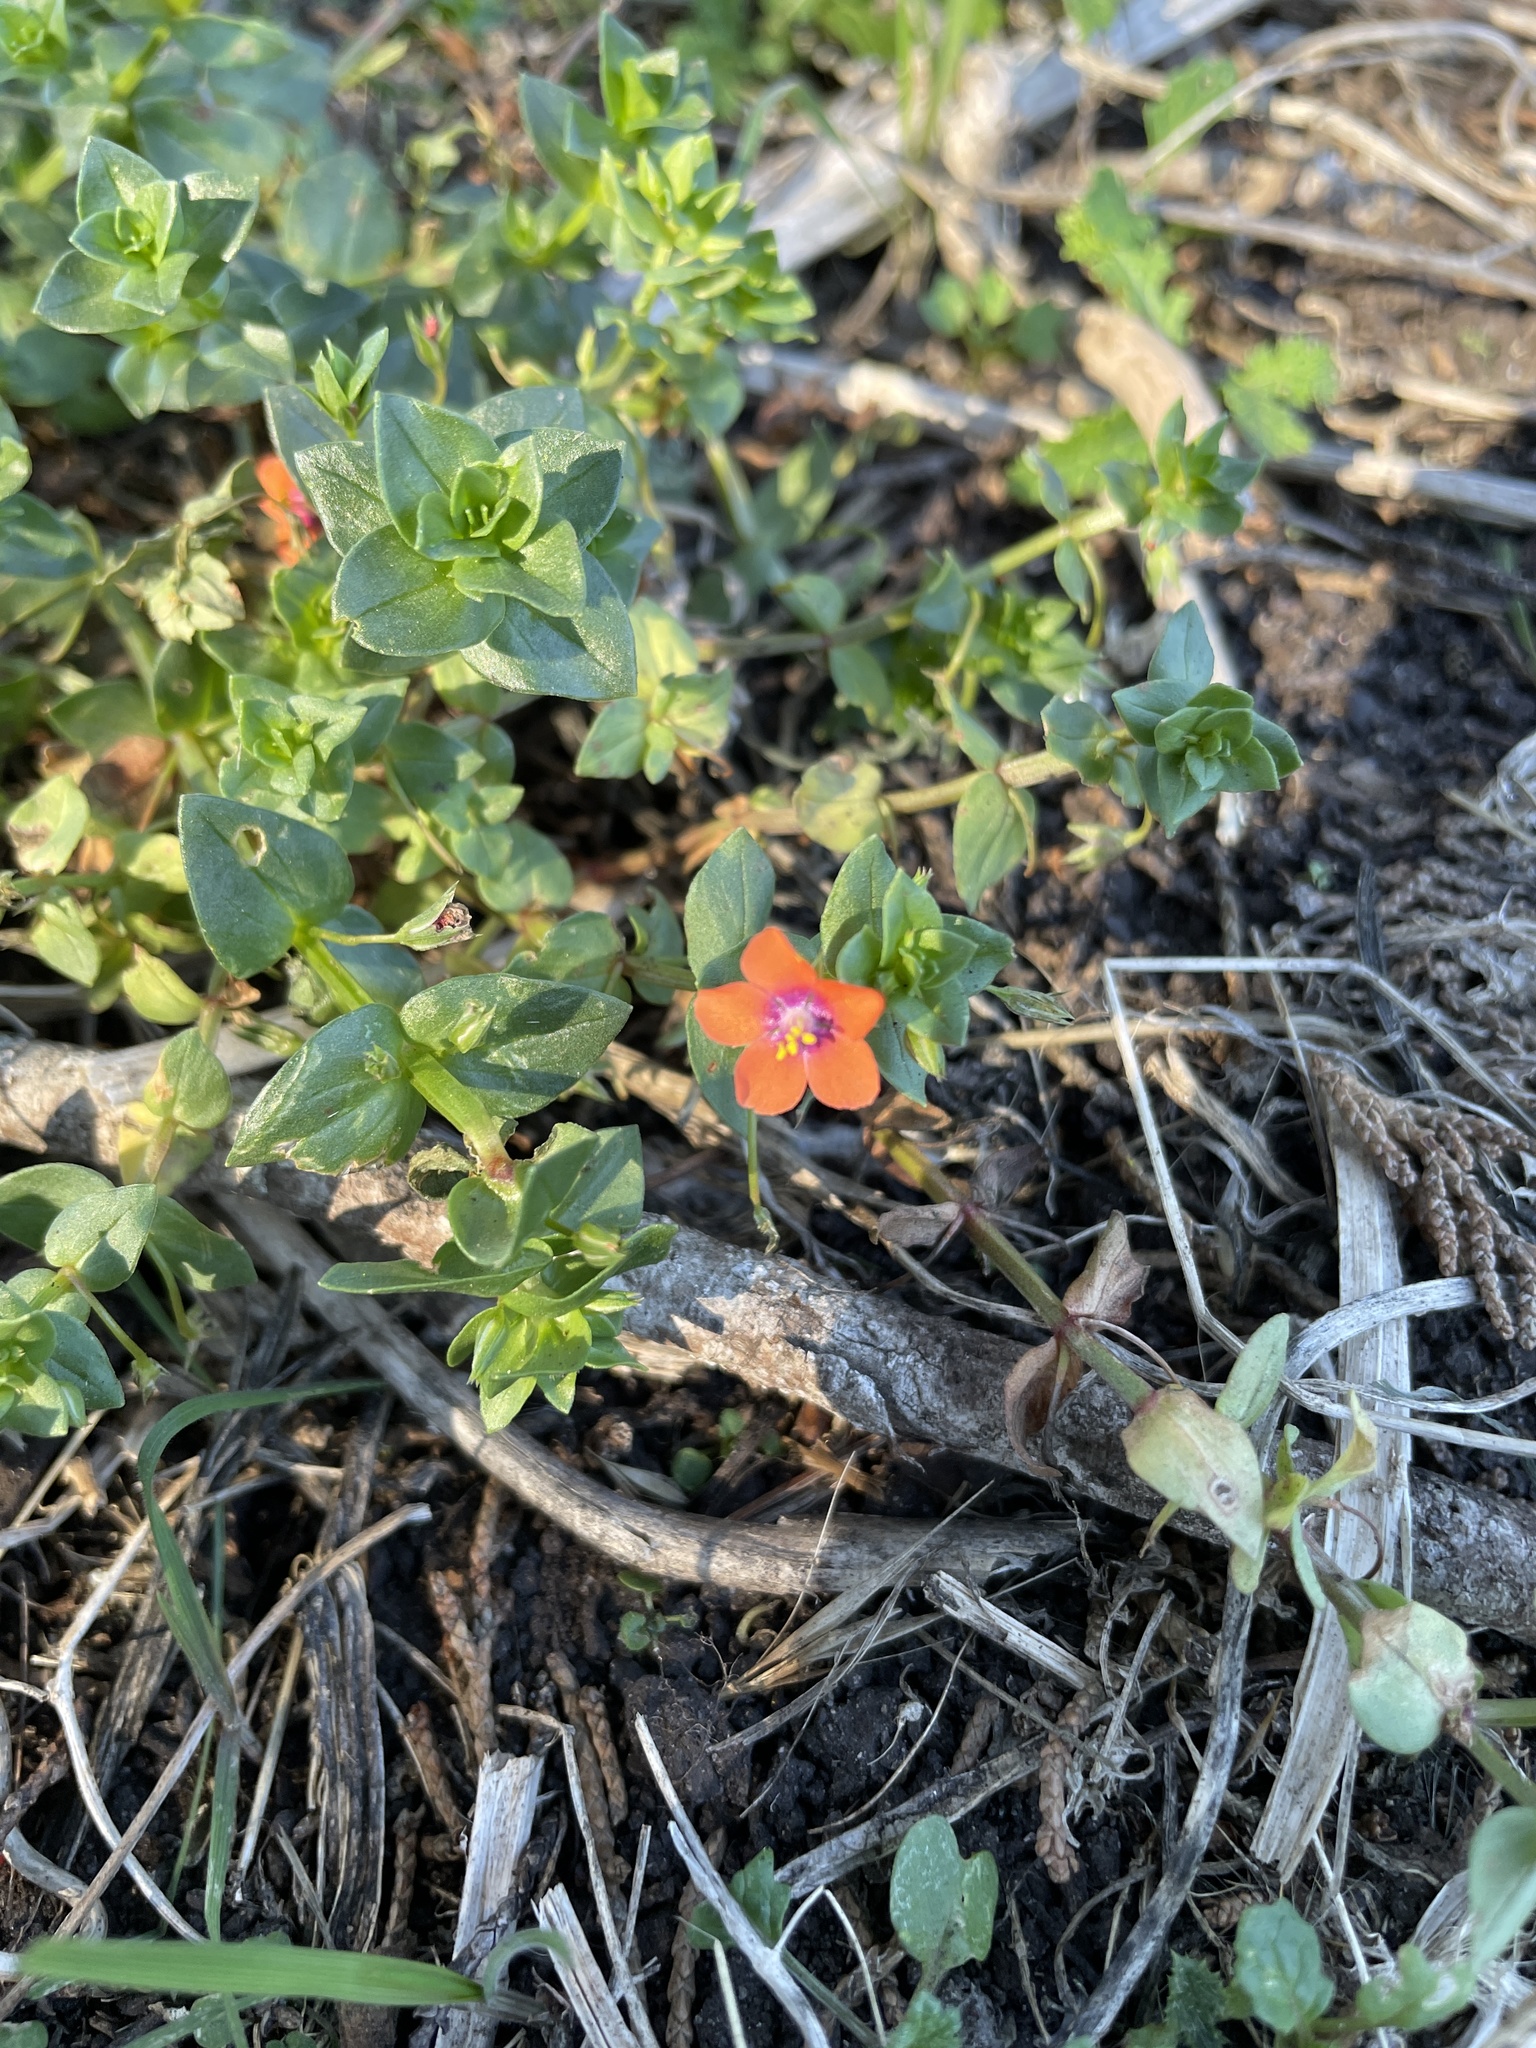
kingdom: Plantae
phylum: Tracheophyta
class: Magnoliopsida
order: Ericales
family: Primulaceae
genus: Lysimachia
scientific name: Lysimachia arvensis
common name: Scarlet pimpernel
